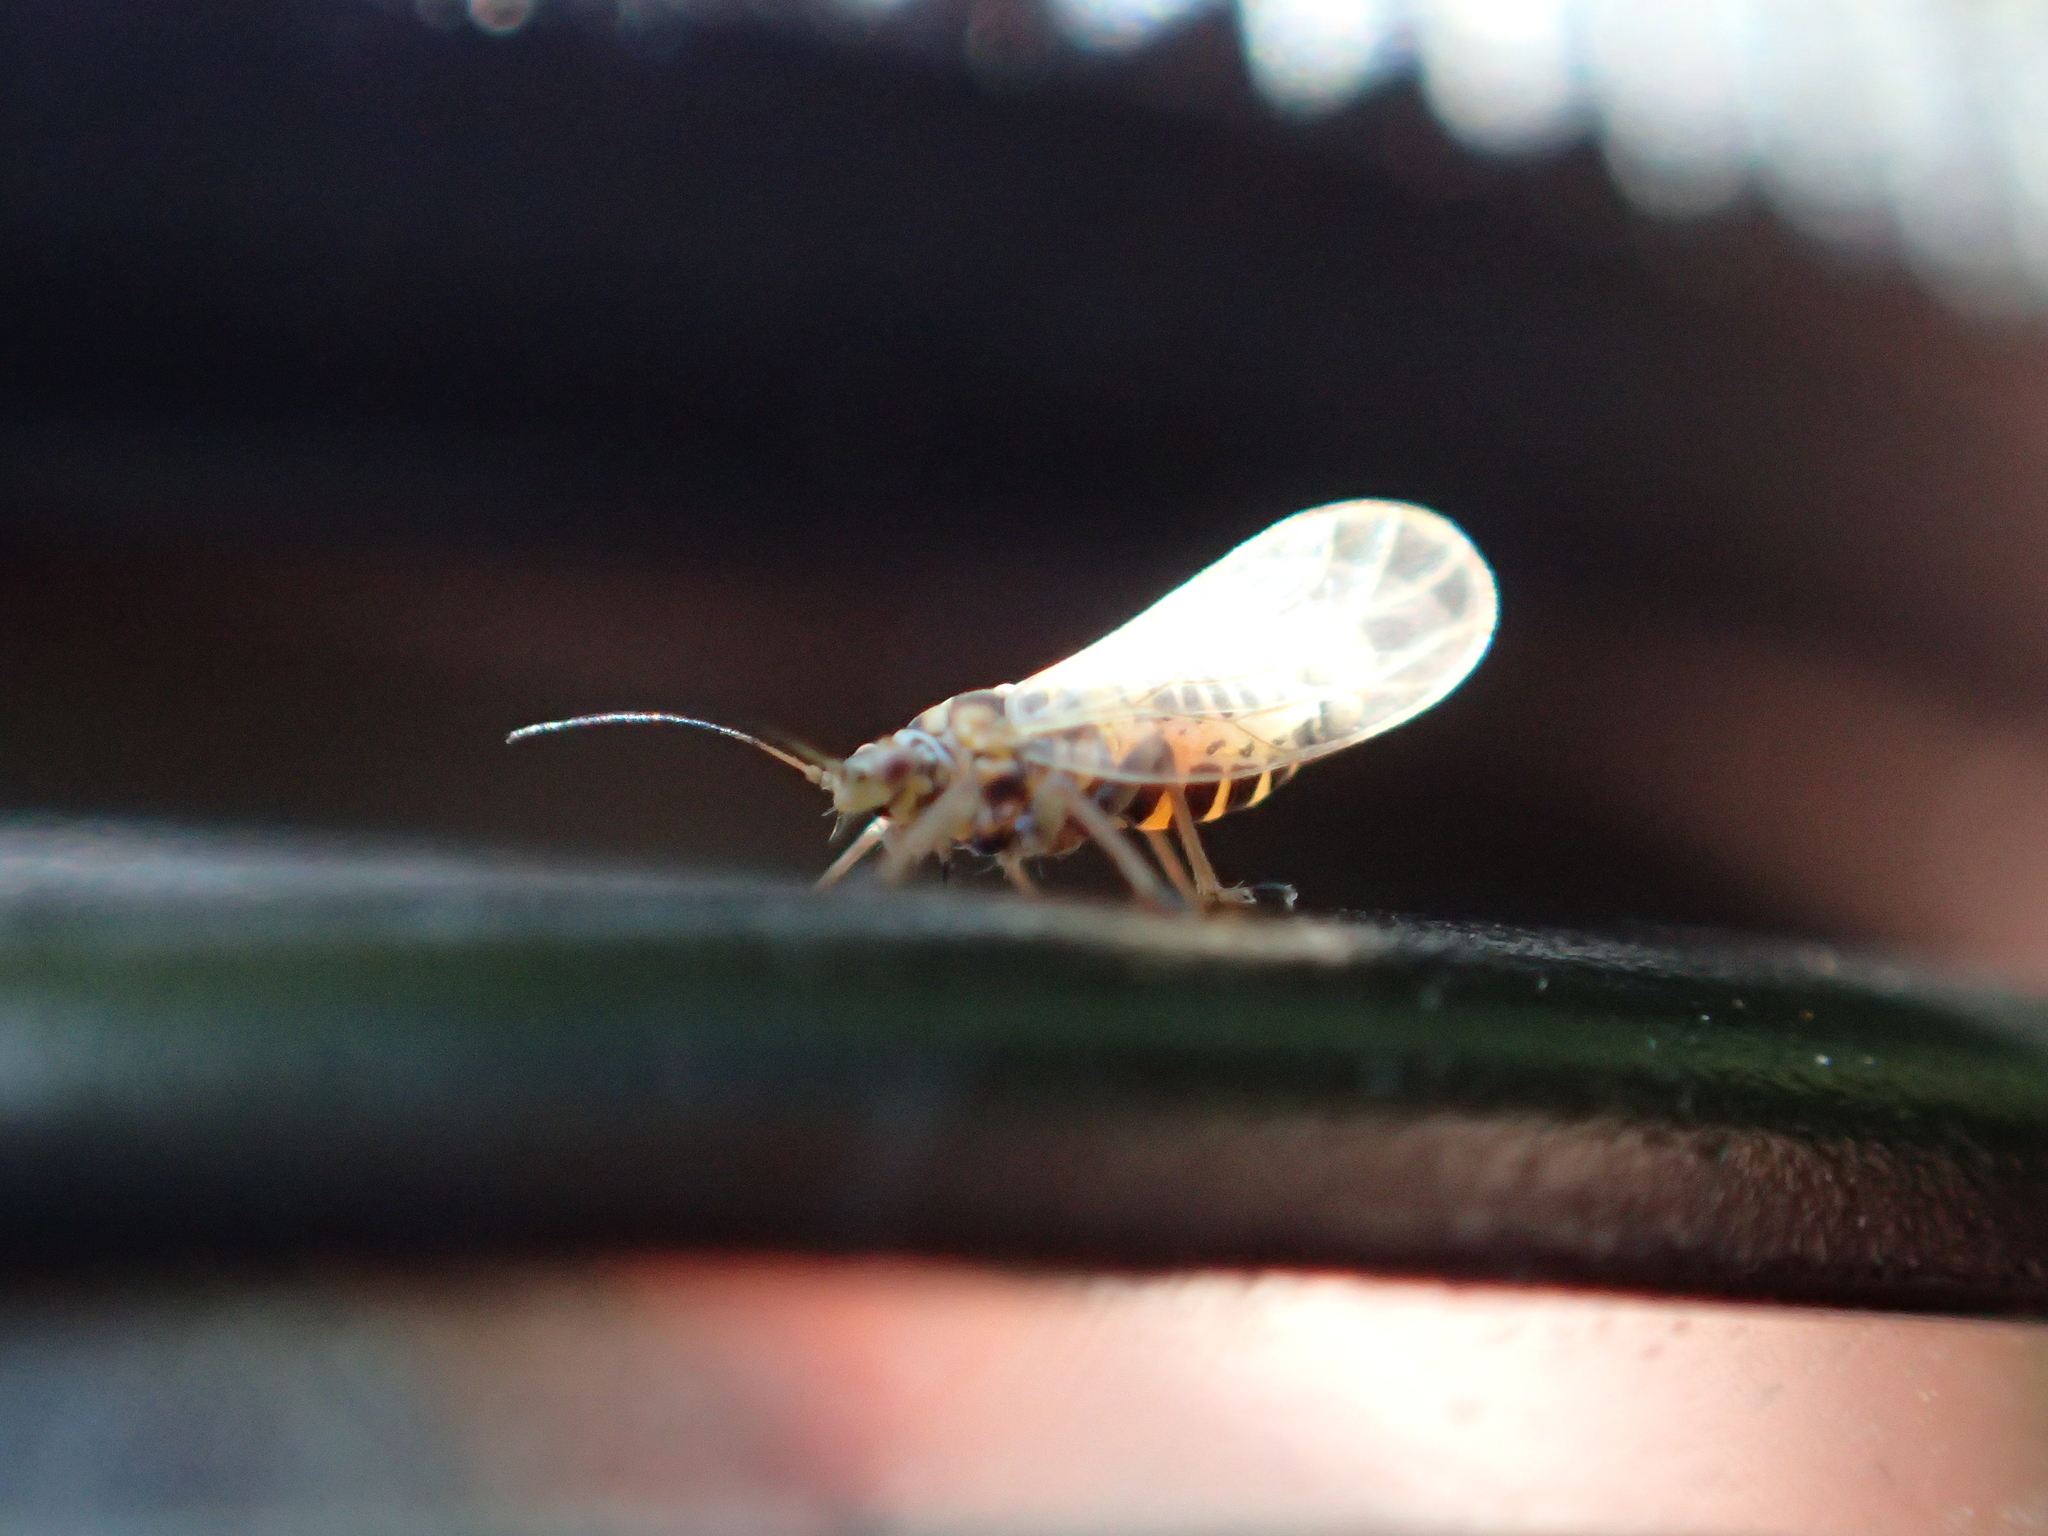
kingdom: Animalia
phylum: Arthropoda
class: Insecta
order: Hemiptera
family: Psyllidae
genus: Arytainilla
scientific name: Arytainilla spartiophila
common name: Psyllid
